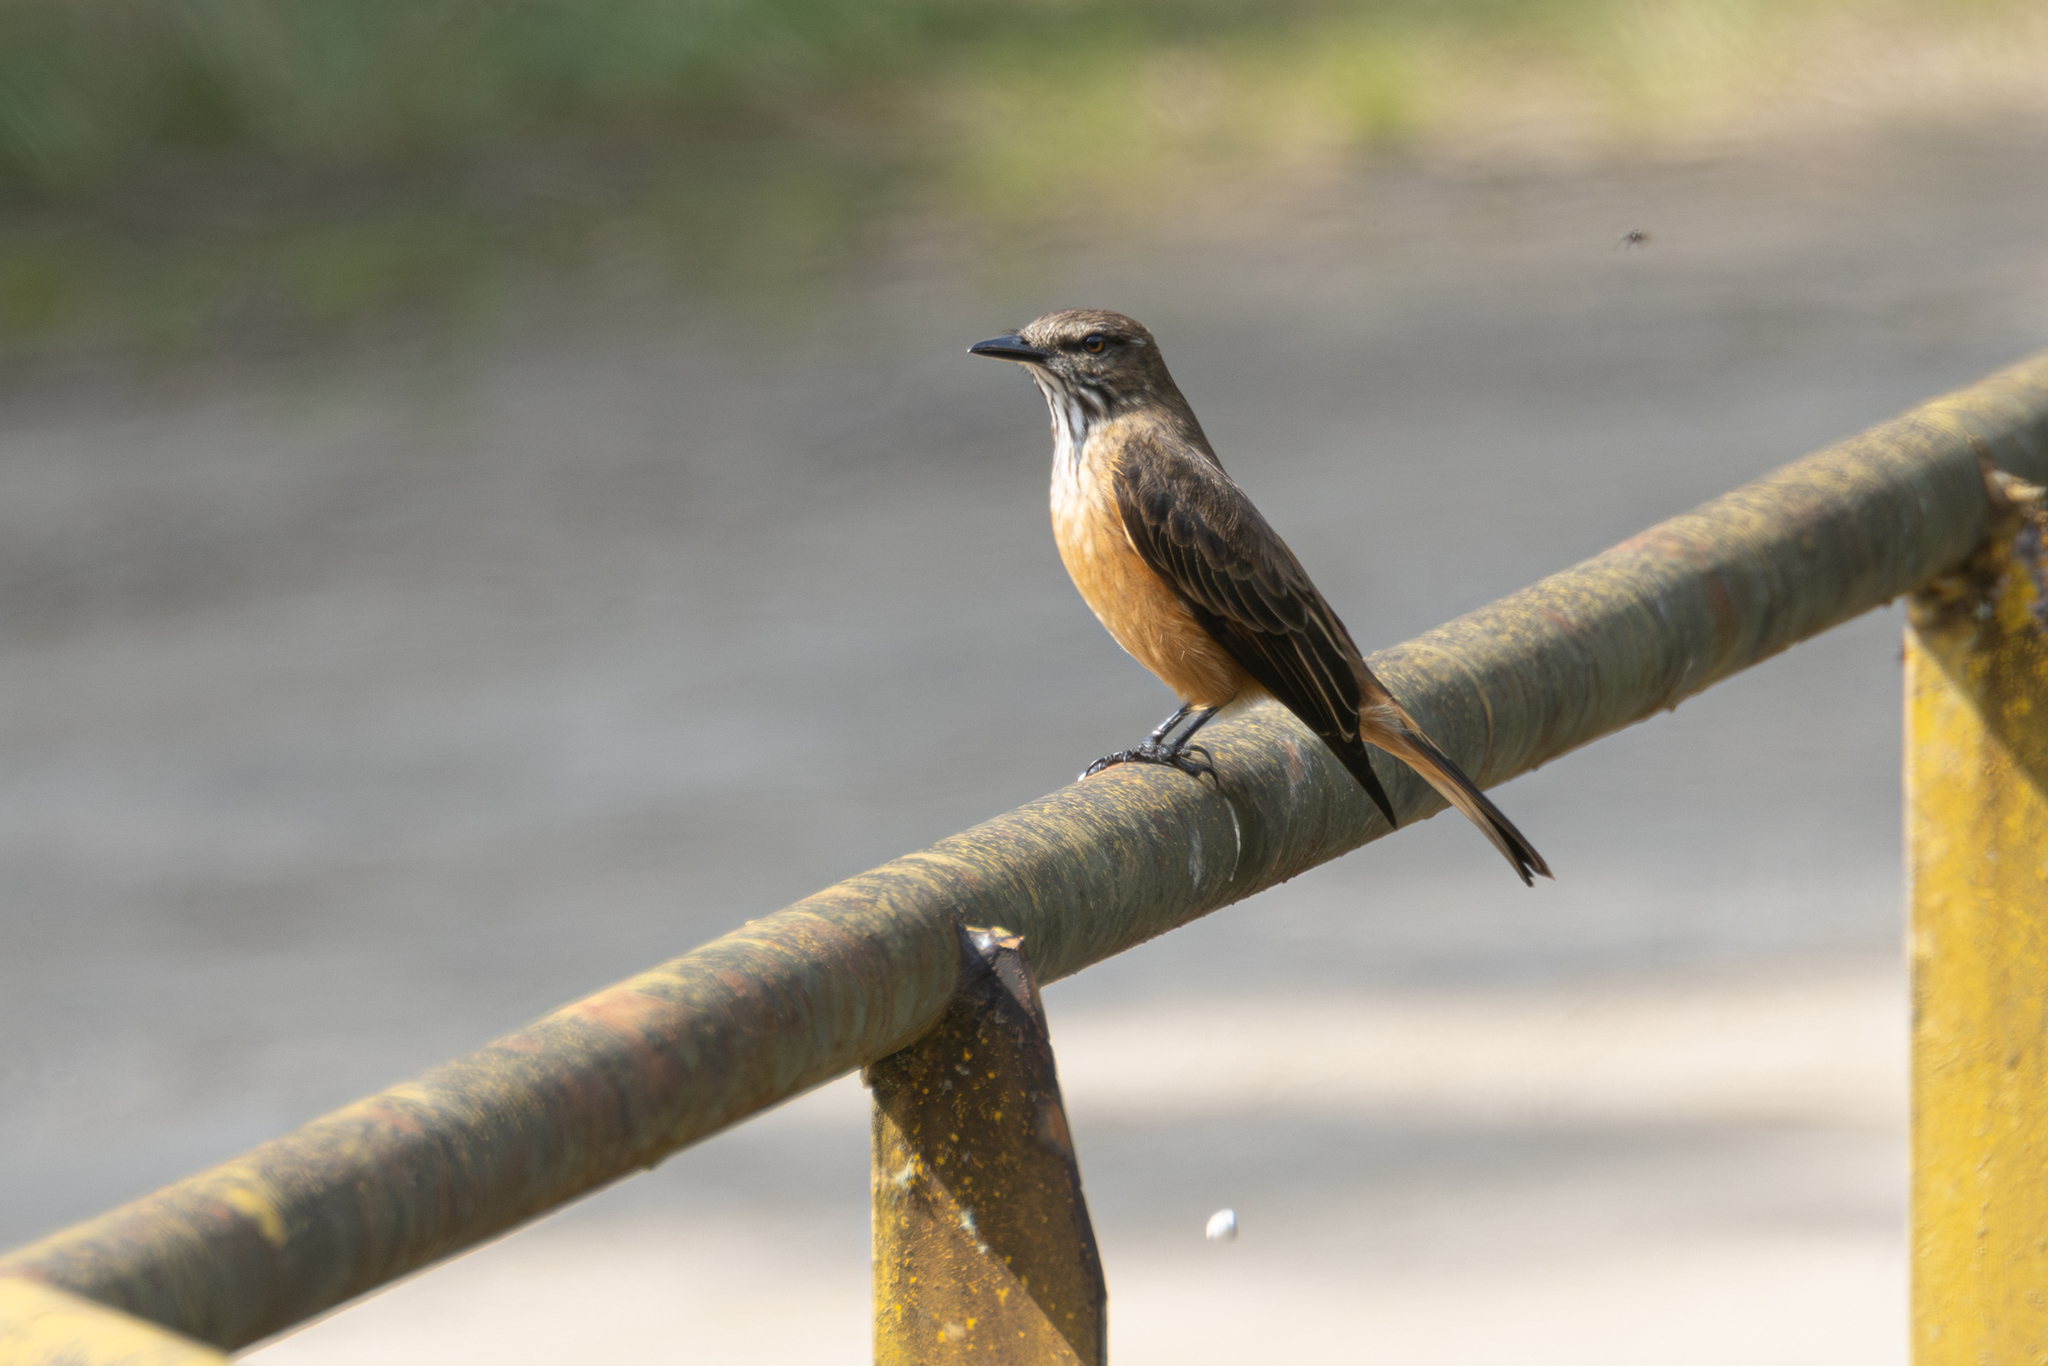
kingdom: Animalia
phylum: Chordata
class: Aves
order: Passeriformes
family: Tyrannidae
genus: Myiotheretes
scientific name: Myiotheretes striaticollis
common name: Streak-throated bush tyrant
